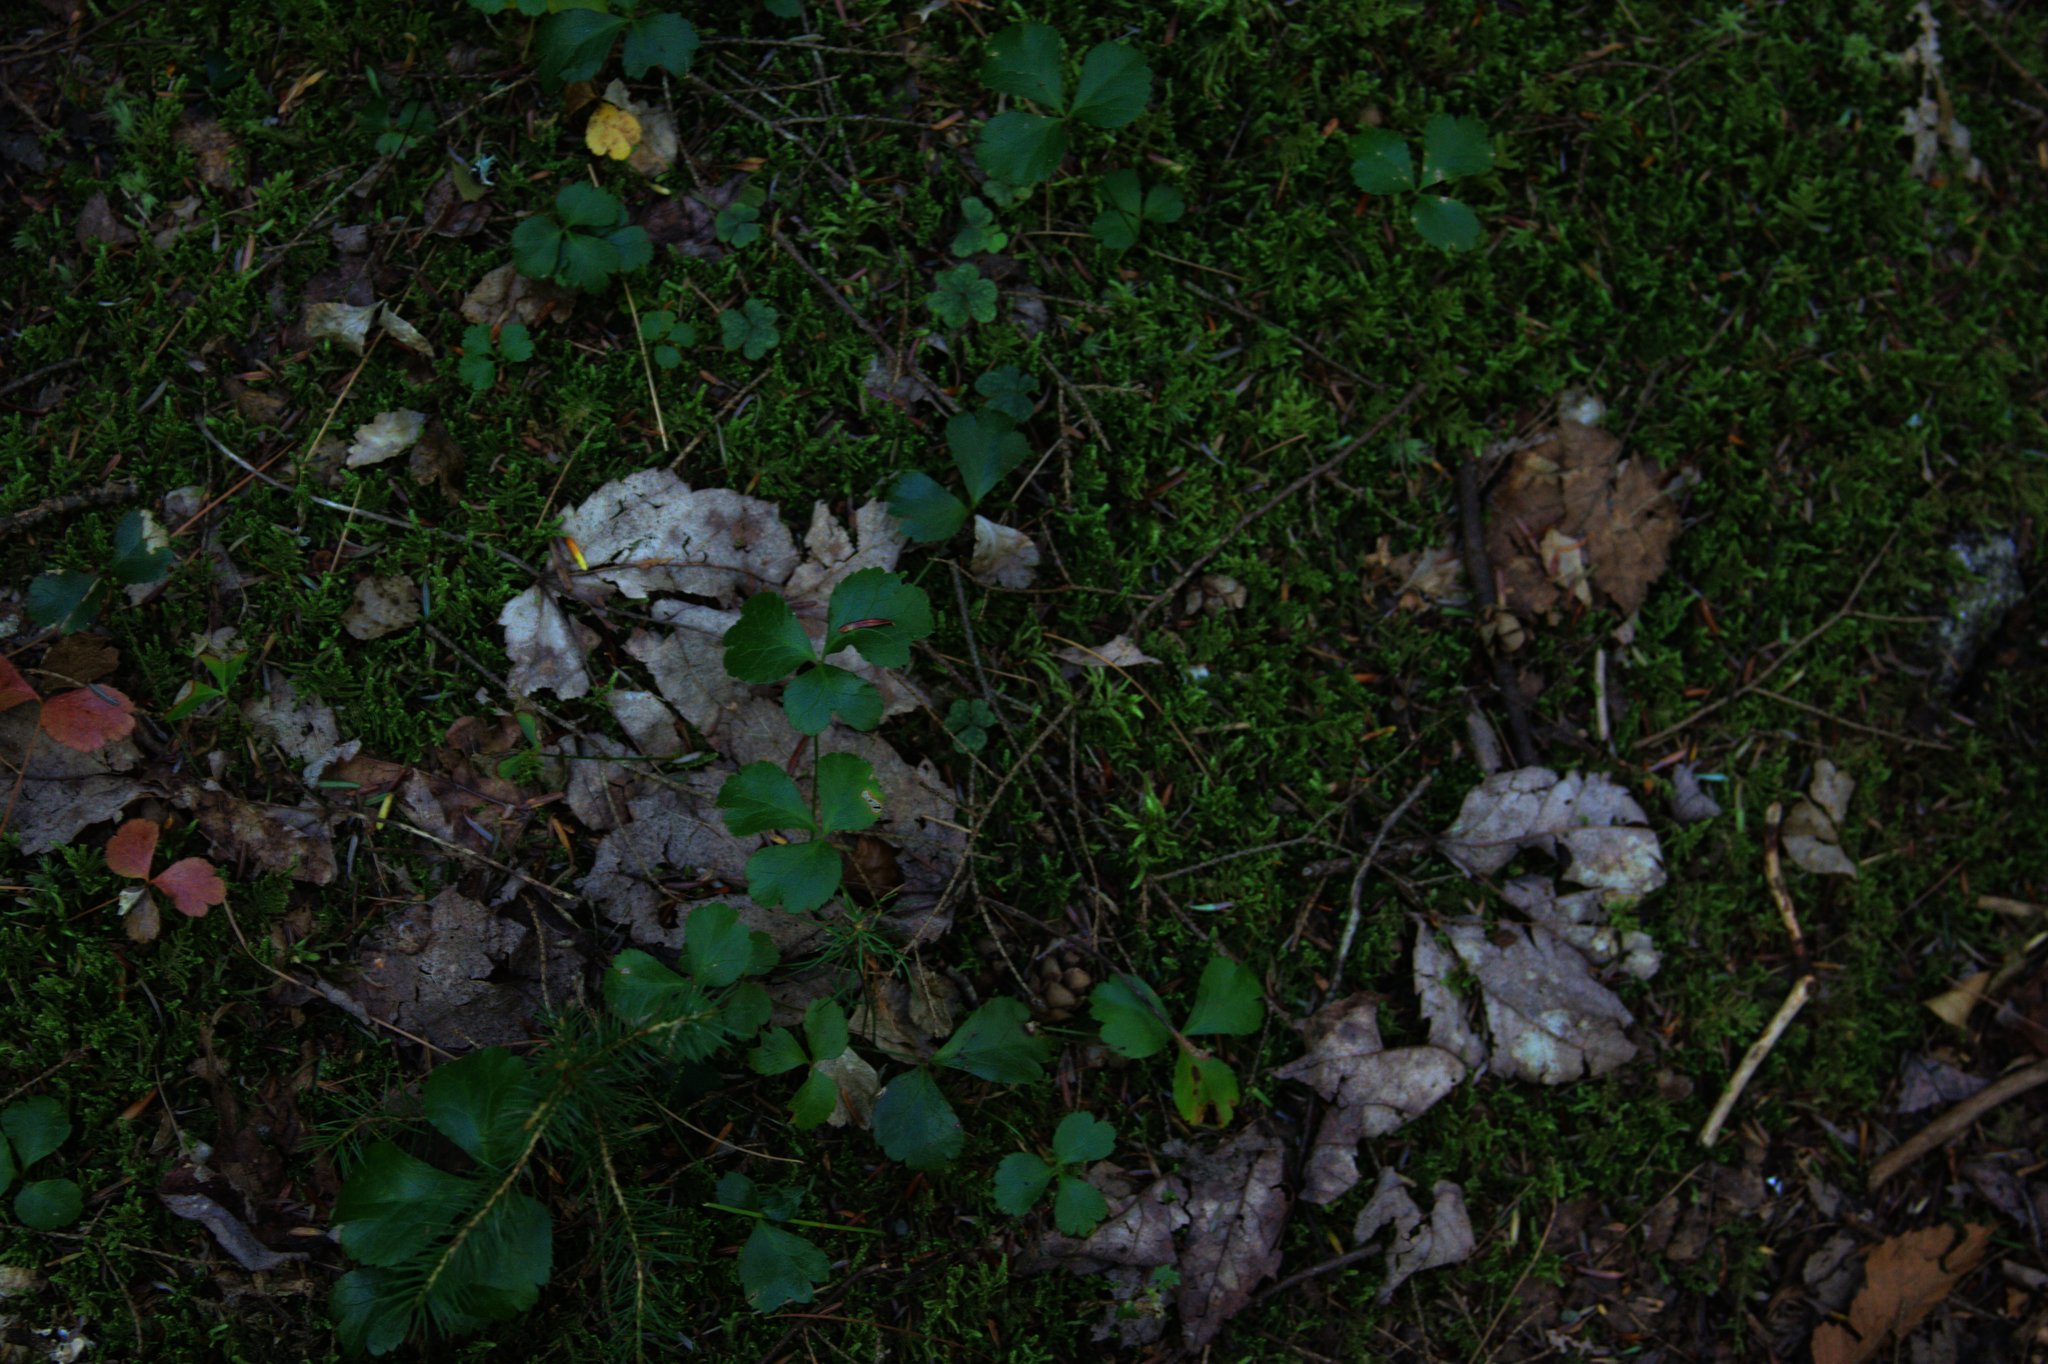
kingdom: Plantae
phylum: Tracheophyta
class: Magnoliopsida
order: Ranunculales
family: Ranunculaceae
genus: Coptis
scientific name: Coptis trifolia
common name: Canker-root
